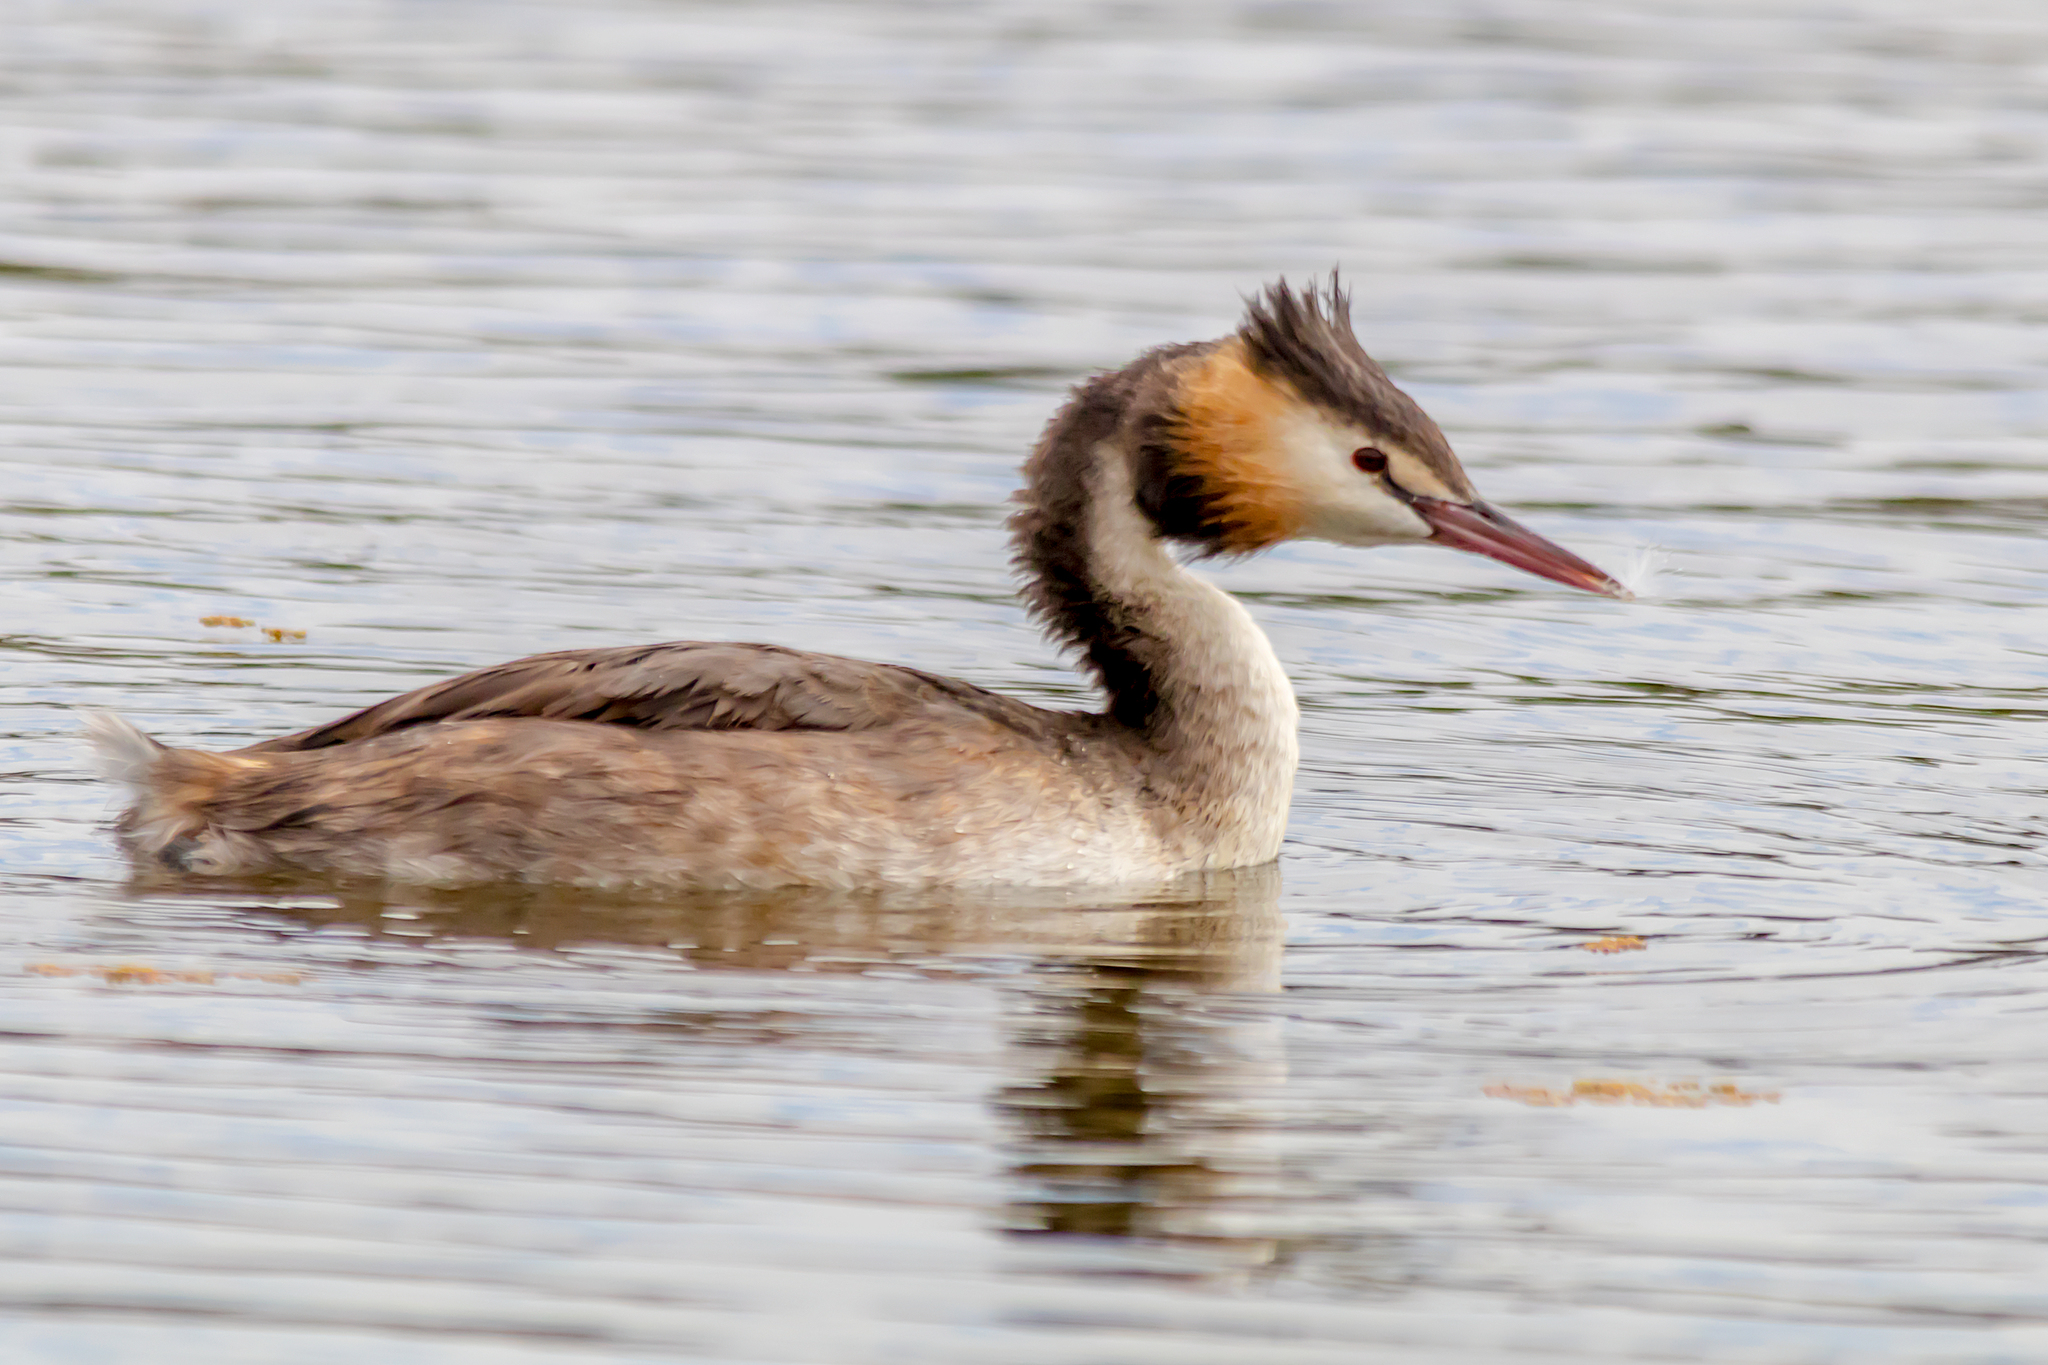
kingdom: Animalia
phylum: Chordata
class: Aves
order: Podicipediformes
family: Podicipedidae
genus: Podiceps
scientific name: Podiceps cristatus
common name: Great crested grebe
